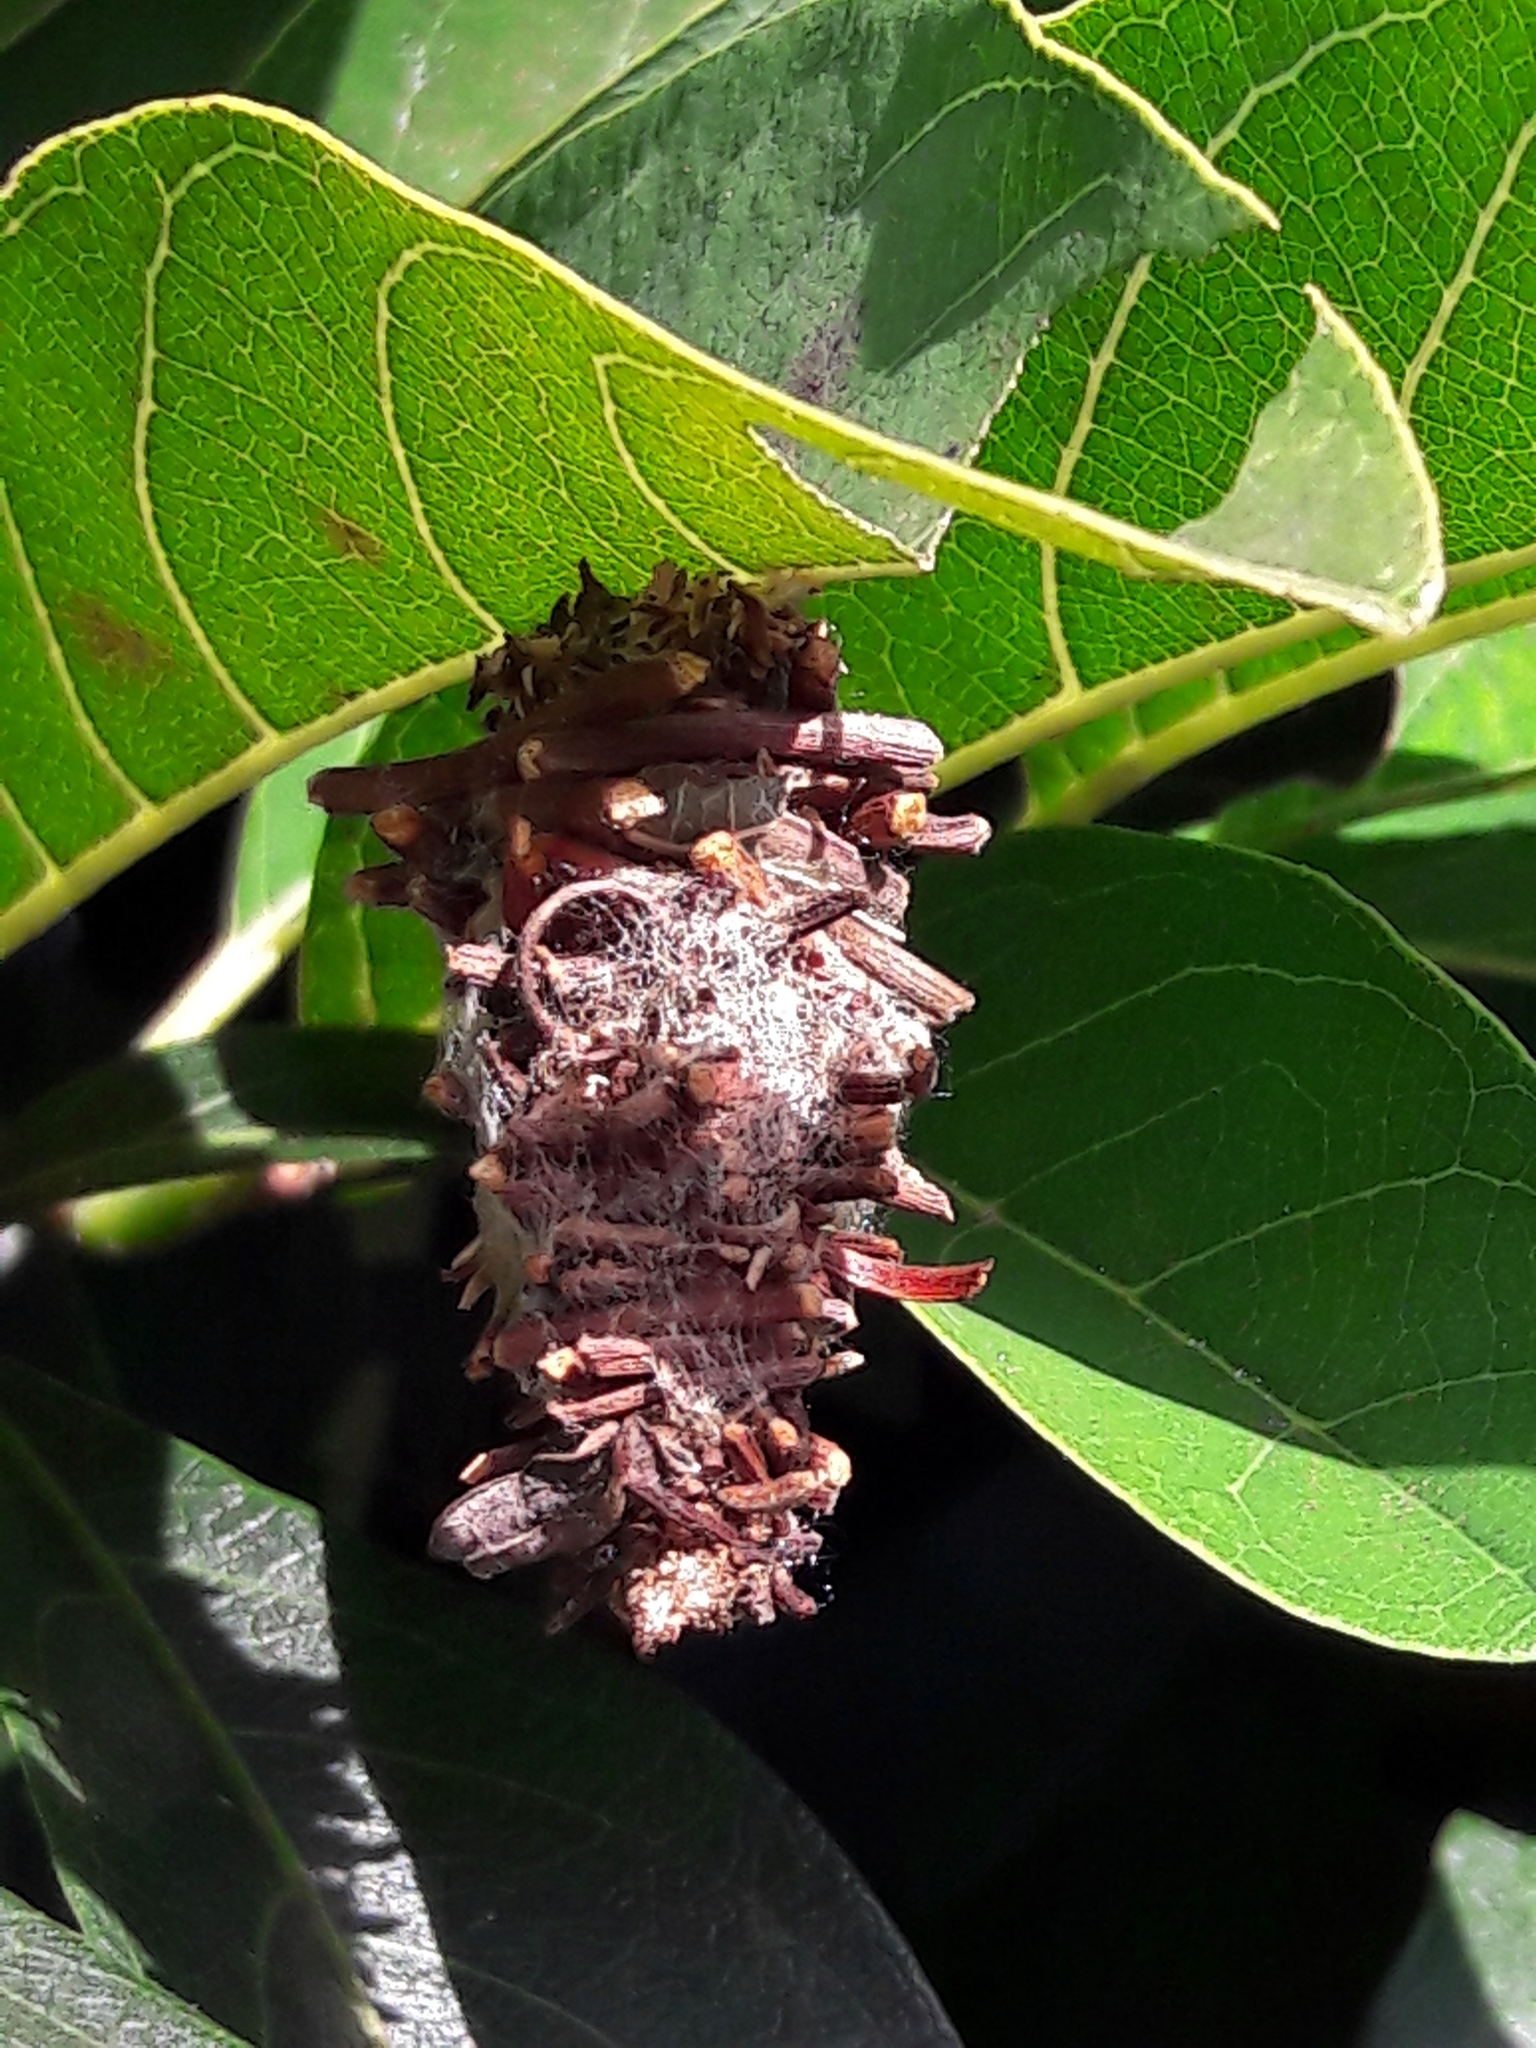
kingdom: Animalia
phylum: Arthropoda
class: Insecta
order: Lepidoptera
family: Psychidae
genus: Oiketicus
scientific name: Oiketicus kirbyi
